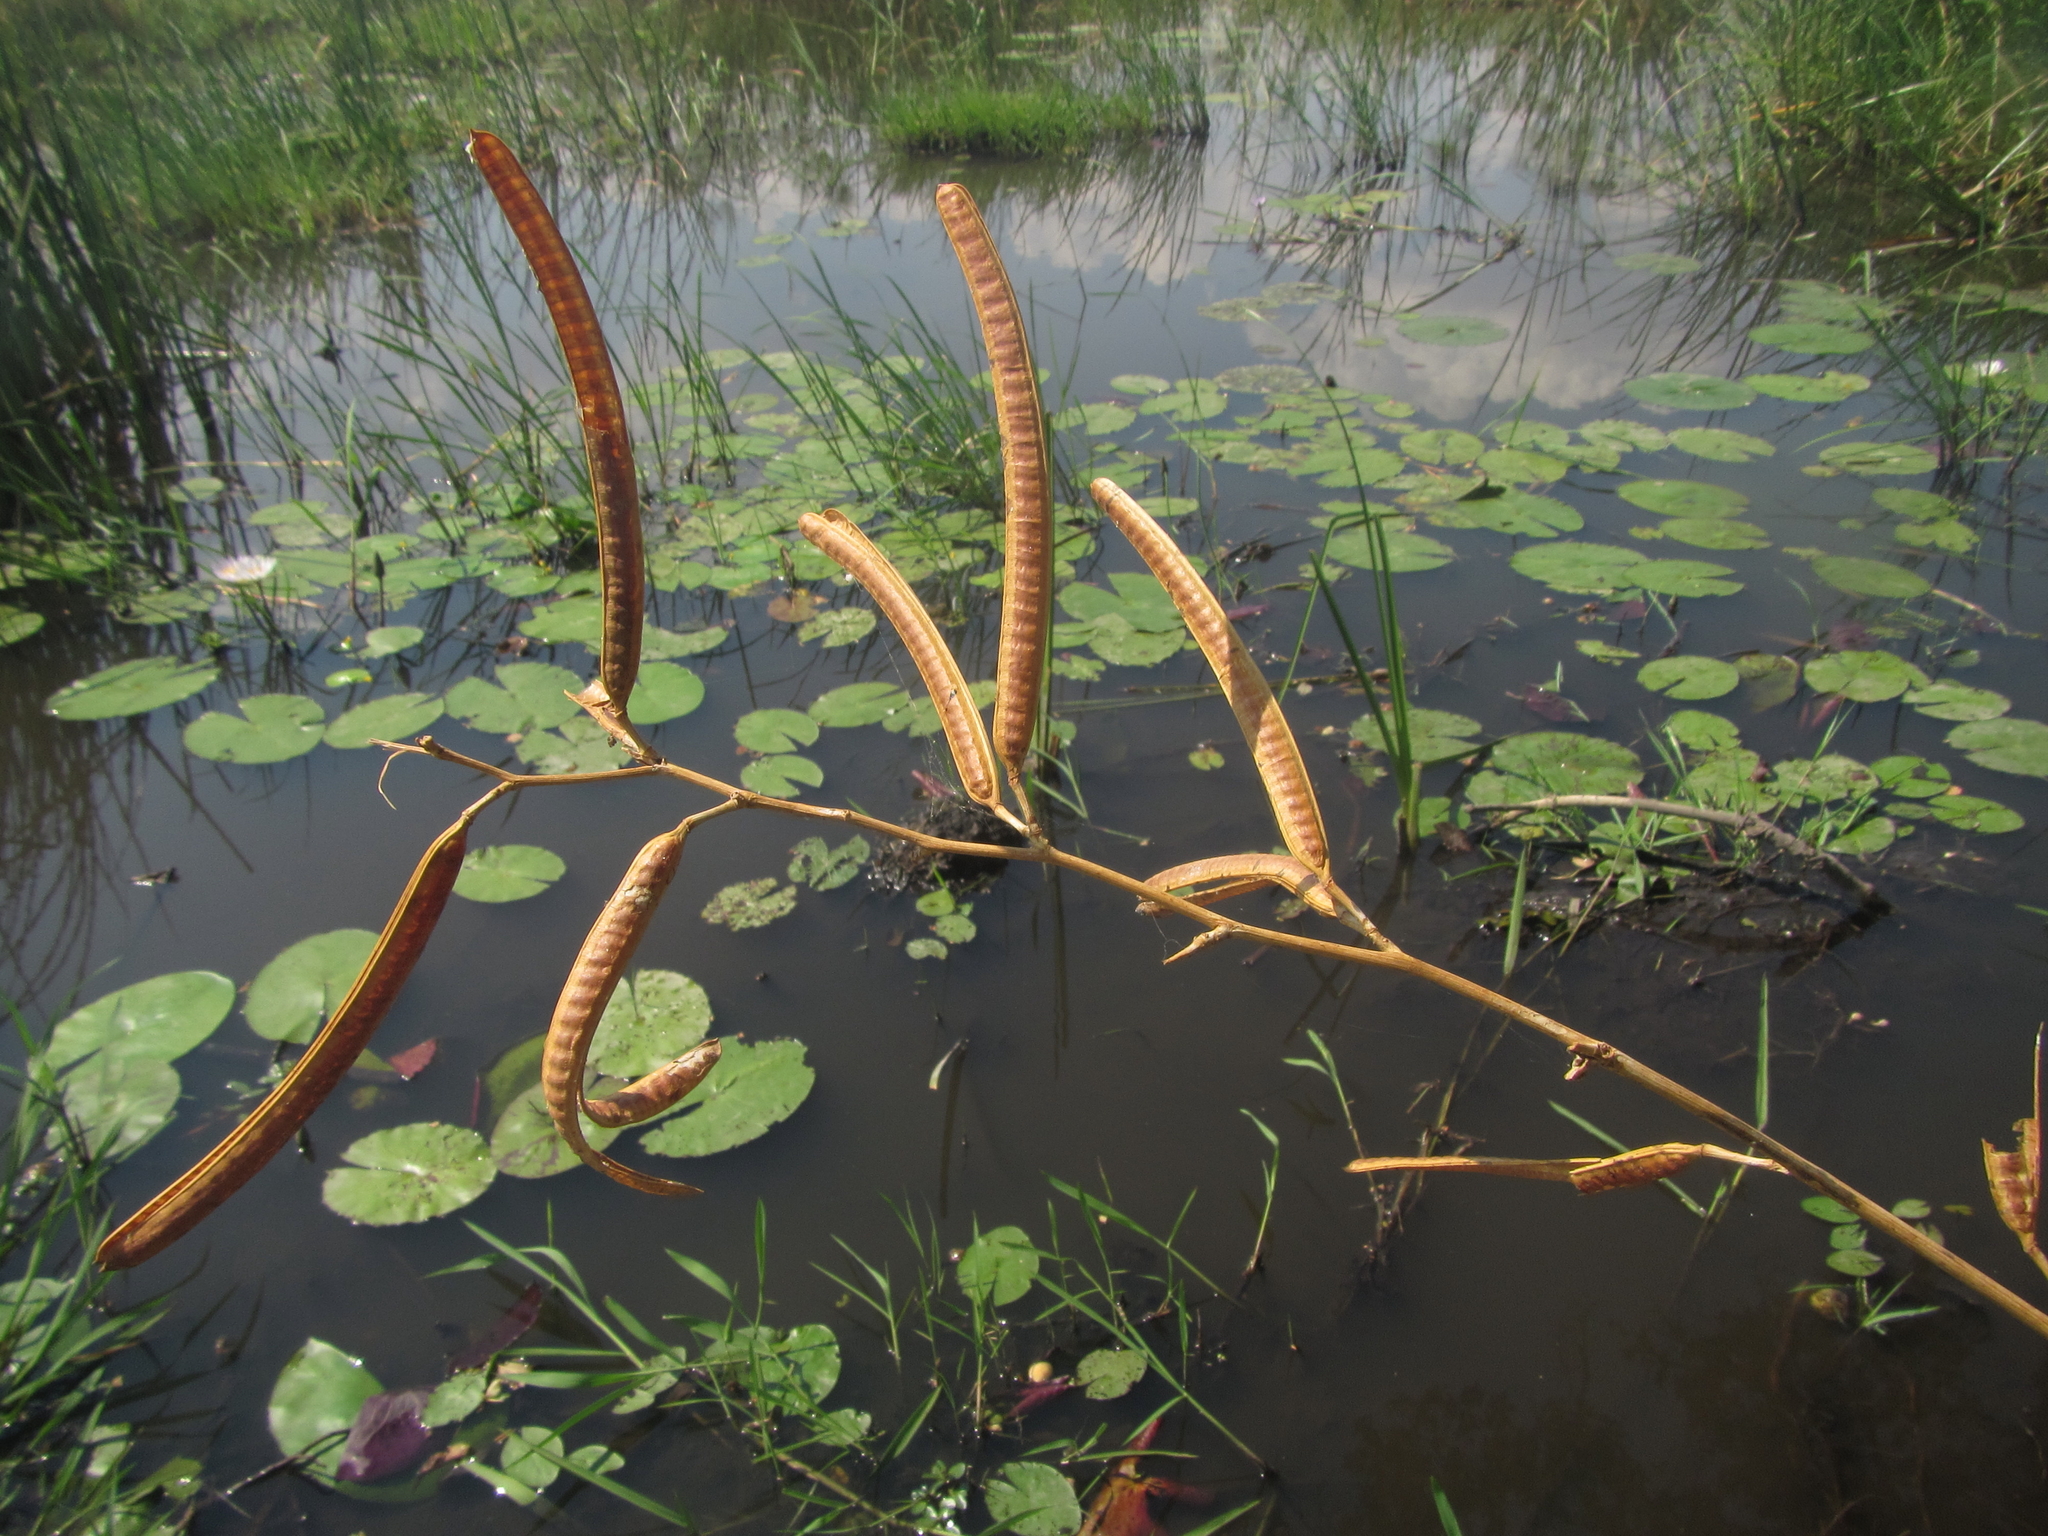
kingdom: Plantae
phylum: Tracheophyta
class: Magnoliopsida
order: Fabales
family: Fabaceae
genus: Senna
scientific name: Senna occidentalis
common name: Septicweed
